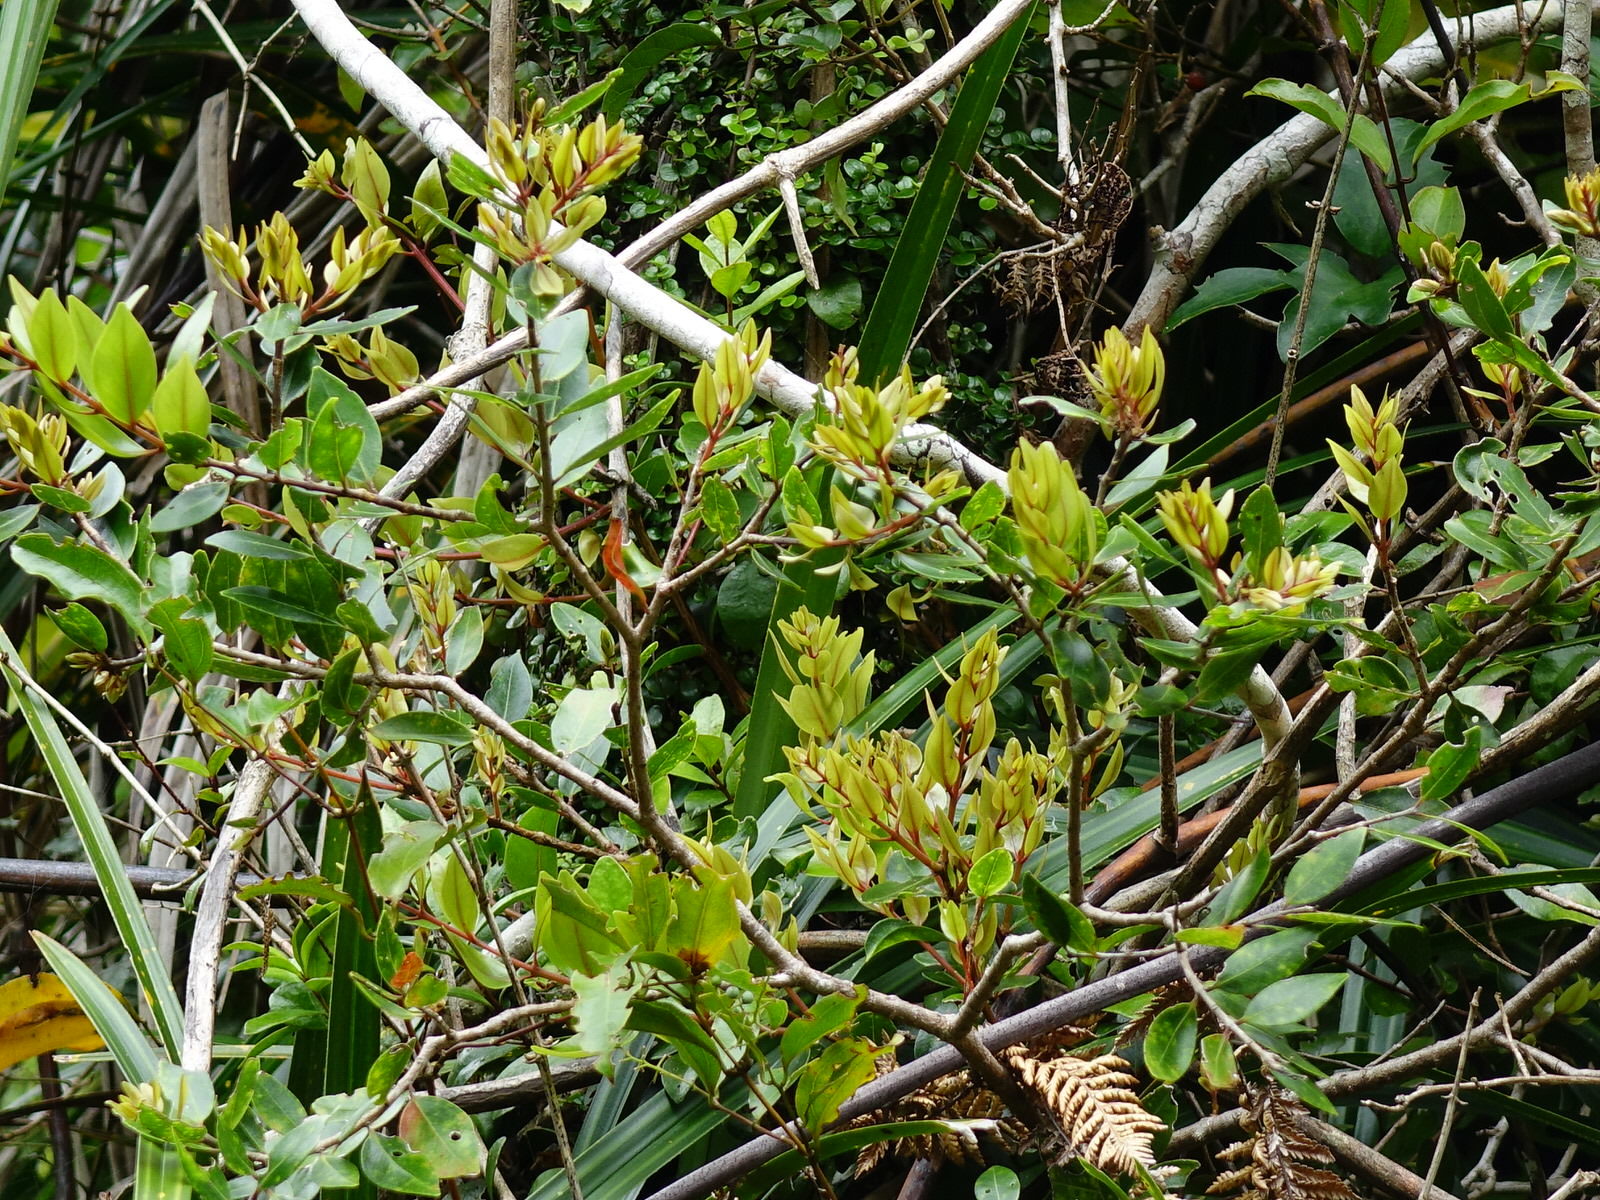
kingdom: Plantae
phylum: Tracheophyta
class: Magnoliopsida
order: Myrtales
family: Myrtaceae
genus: Metrosideros
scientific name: Metrosideros robusta
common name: Northern rata
